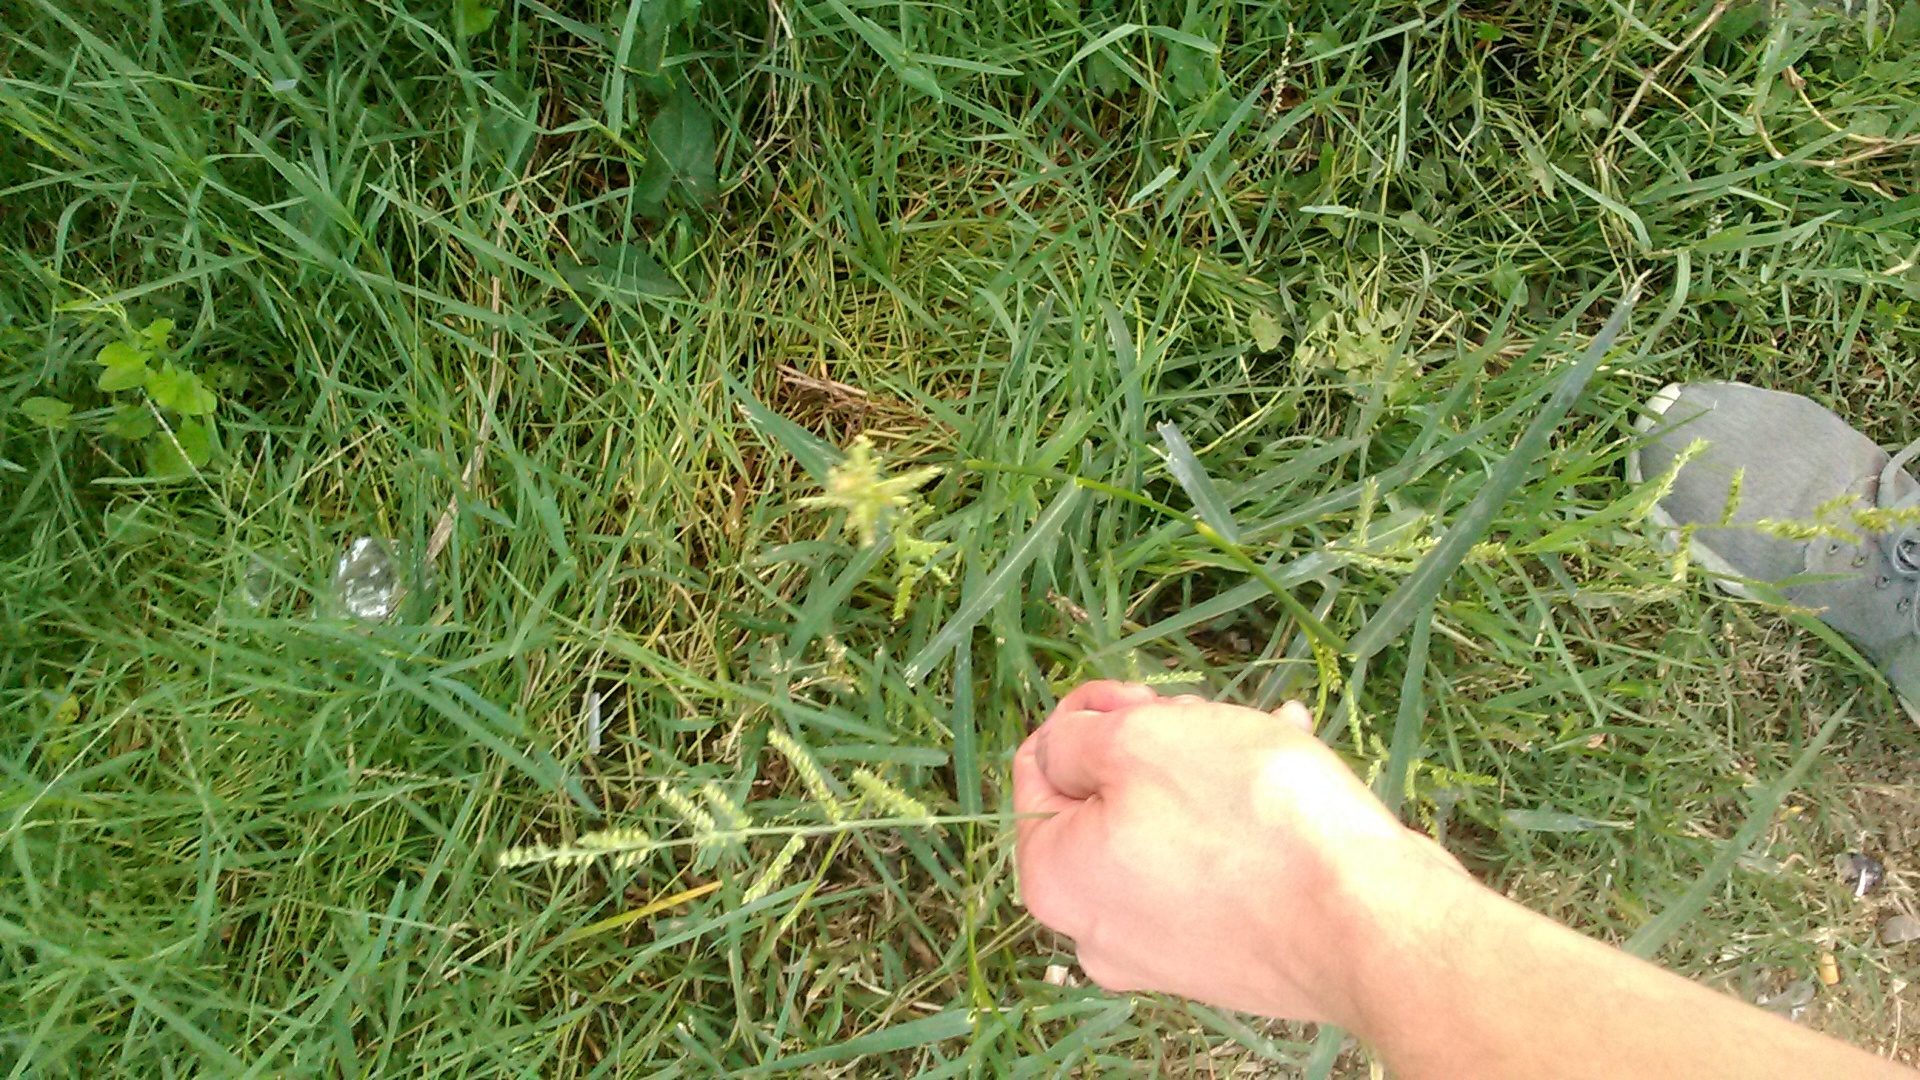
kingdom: Plantae
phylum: Tracheophyta
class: Liliopsida
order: Poales
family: Poaceae
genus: Echinochloa
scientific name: Echinochloa crus-galli
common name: Cockspur
